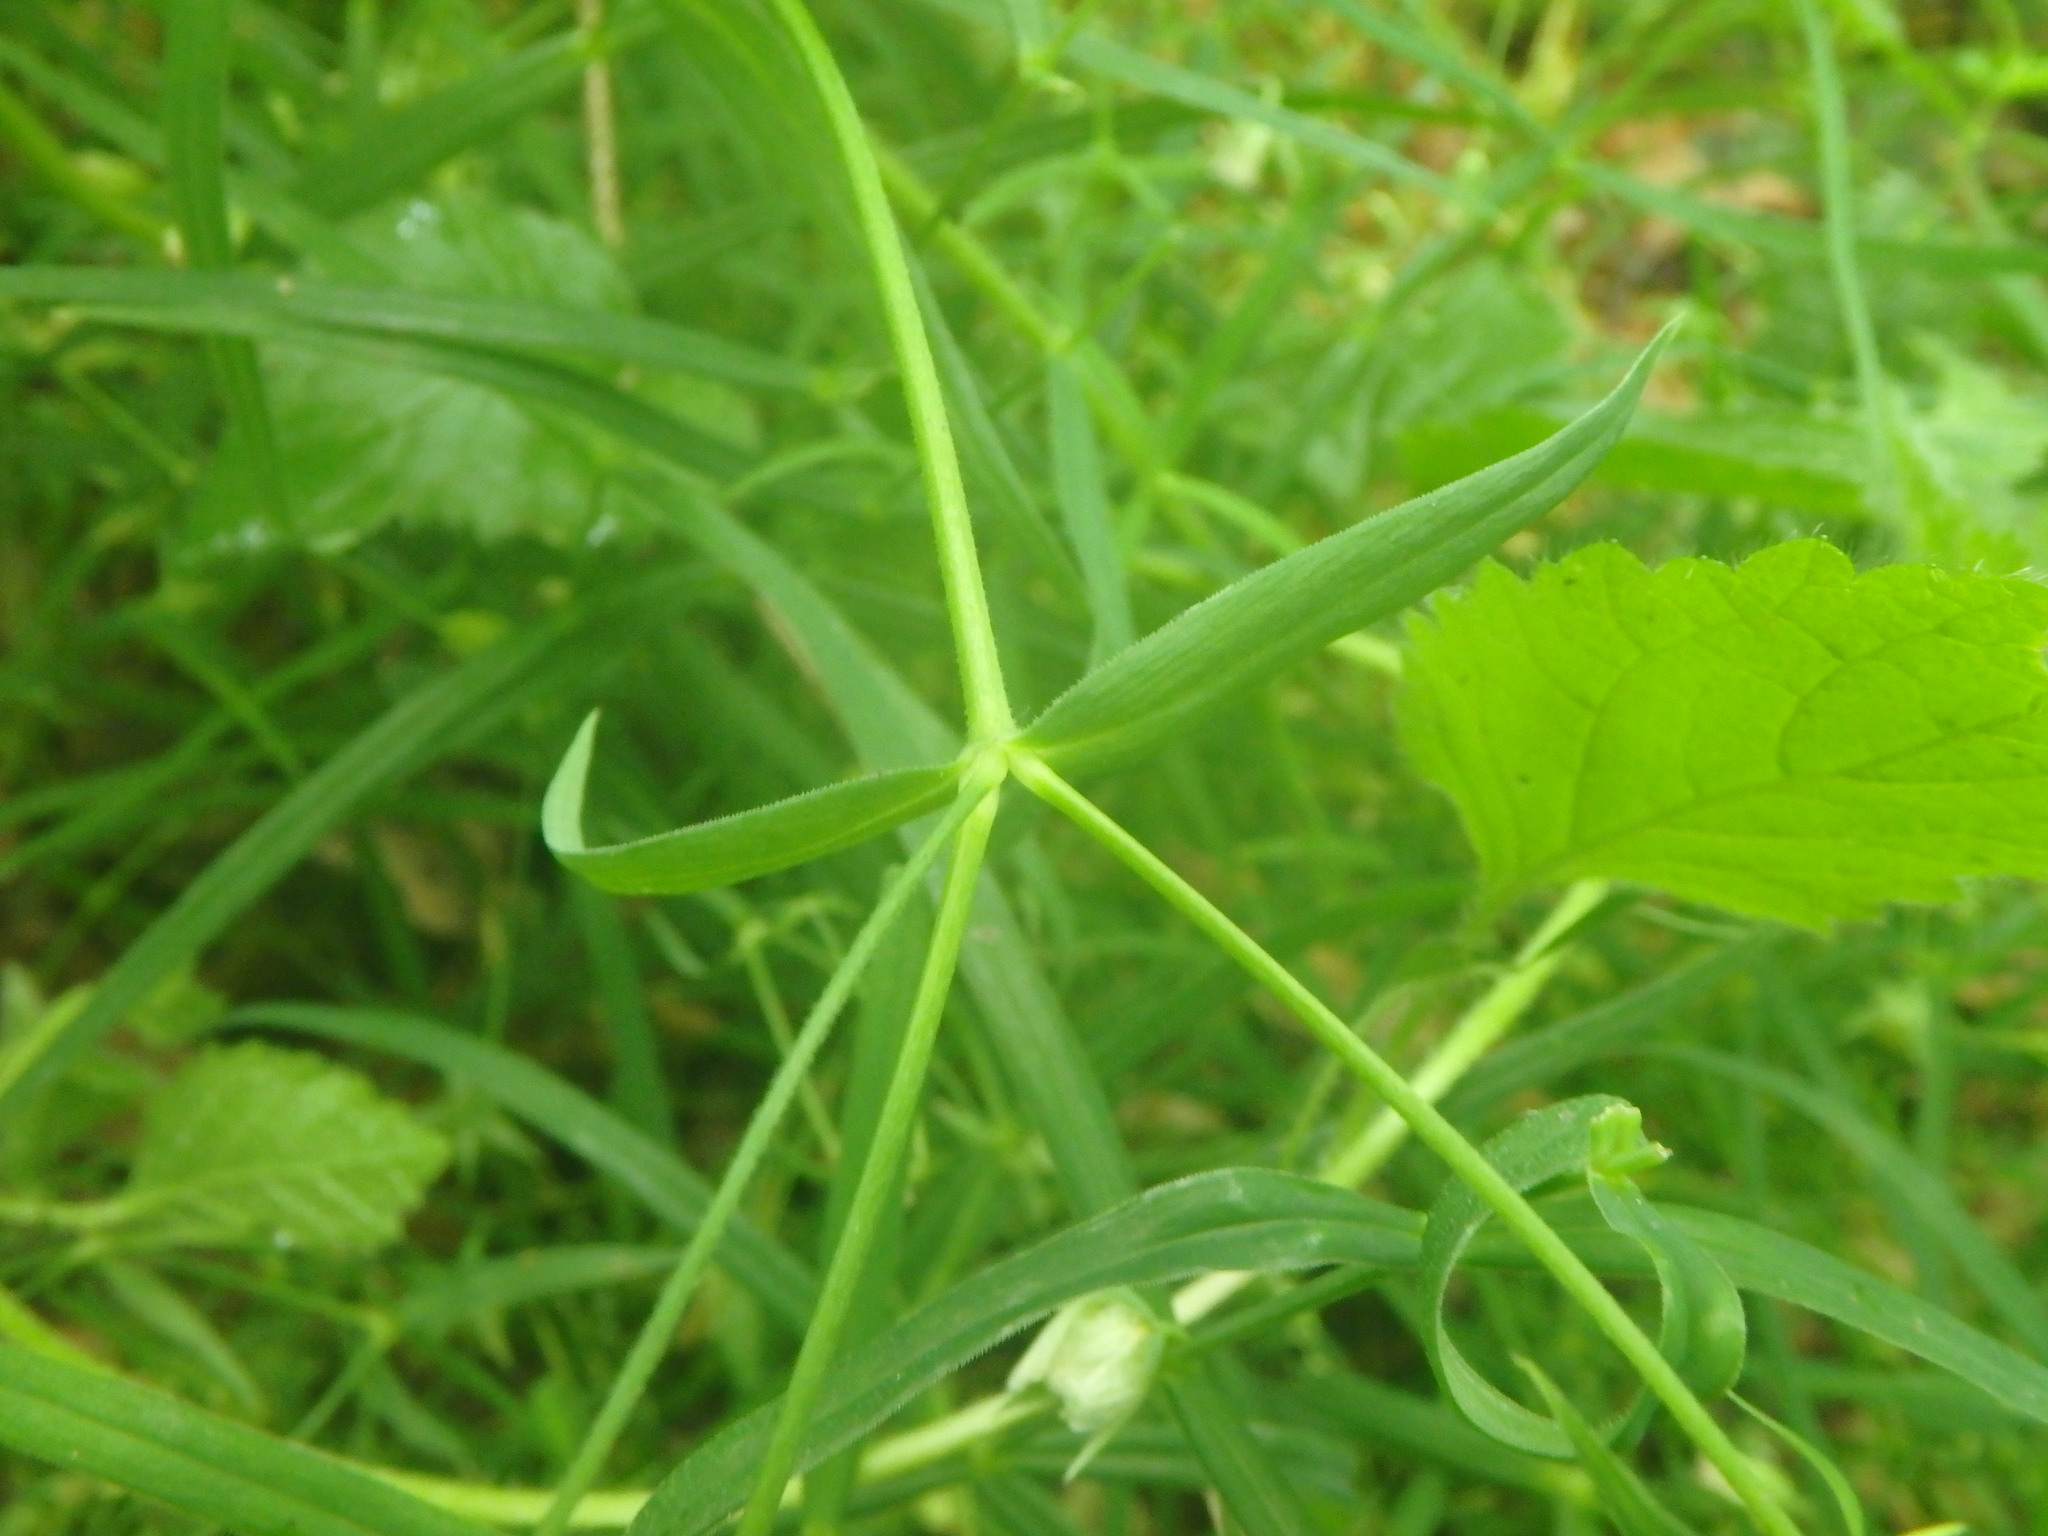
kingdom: Plantae
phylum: Tracheophyta
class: Magnoliopsida
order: Caryophyllales
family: Caryophyllaceae
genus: Rabelera
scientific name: Rabelera holostea
